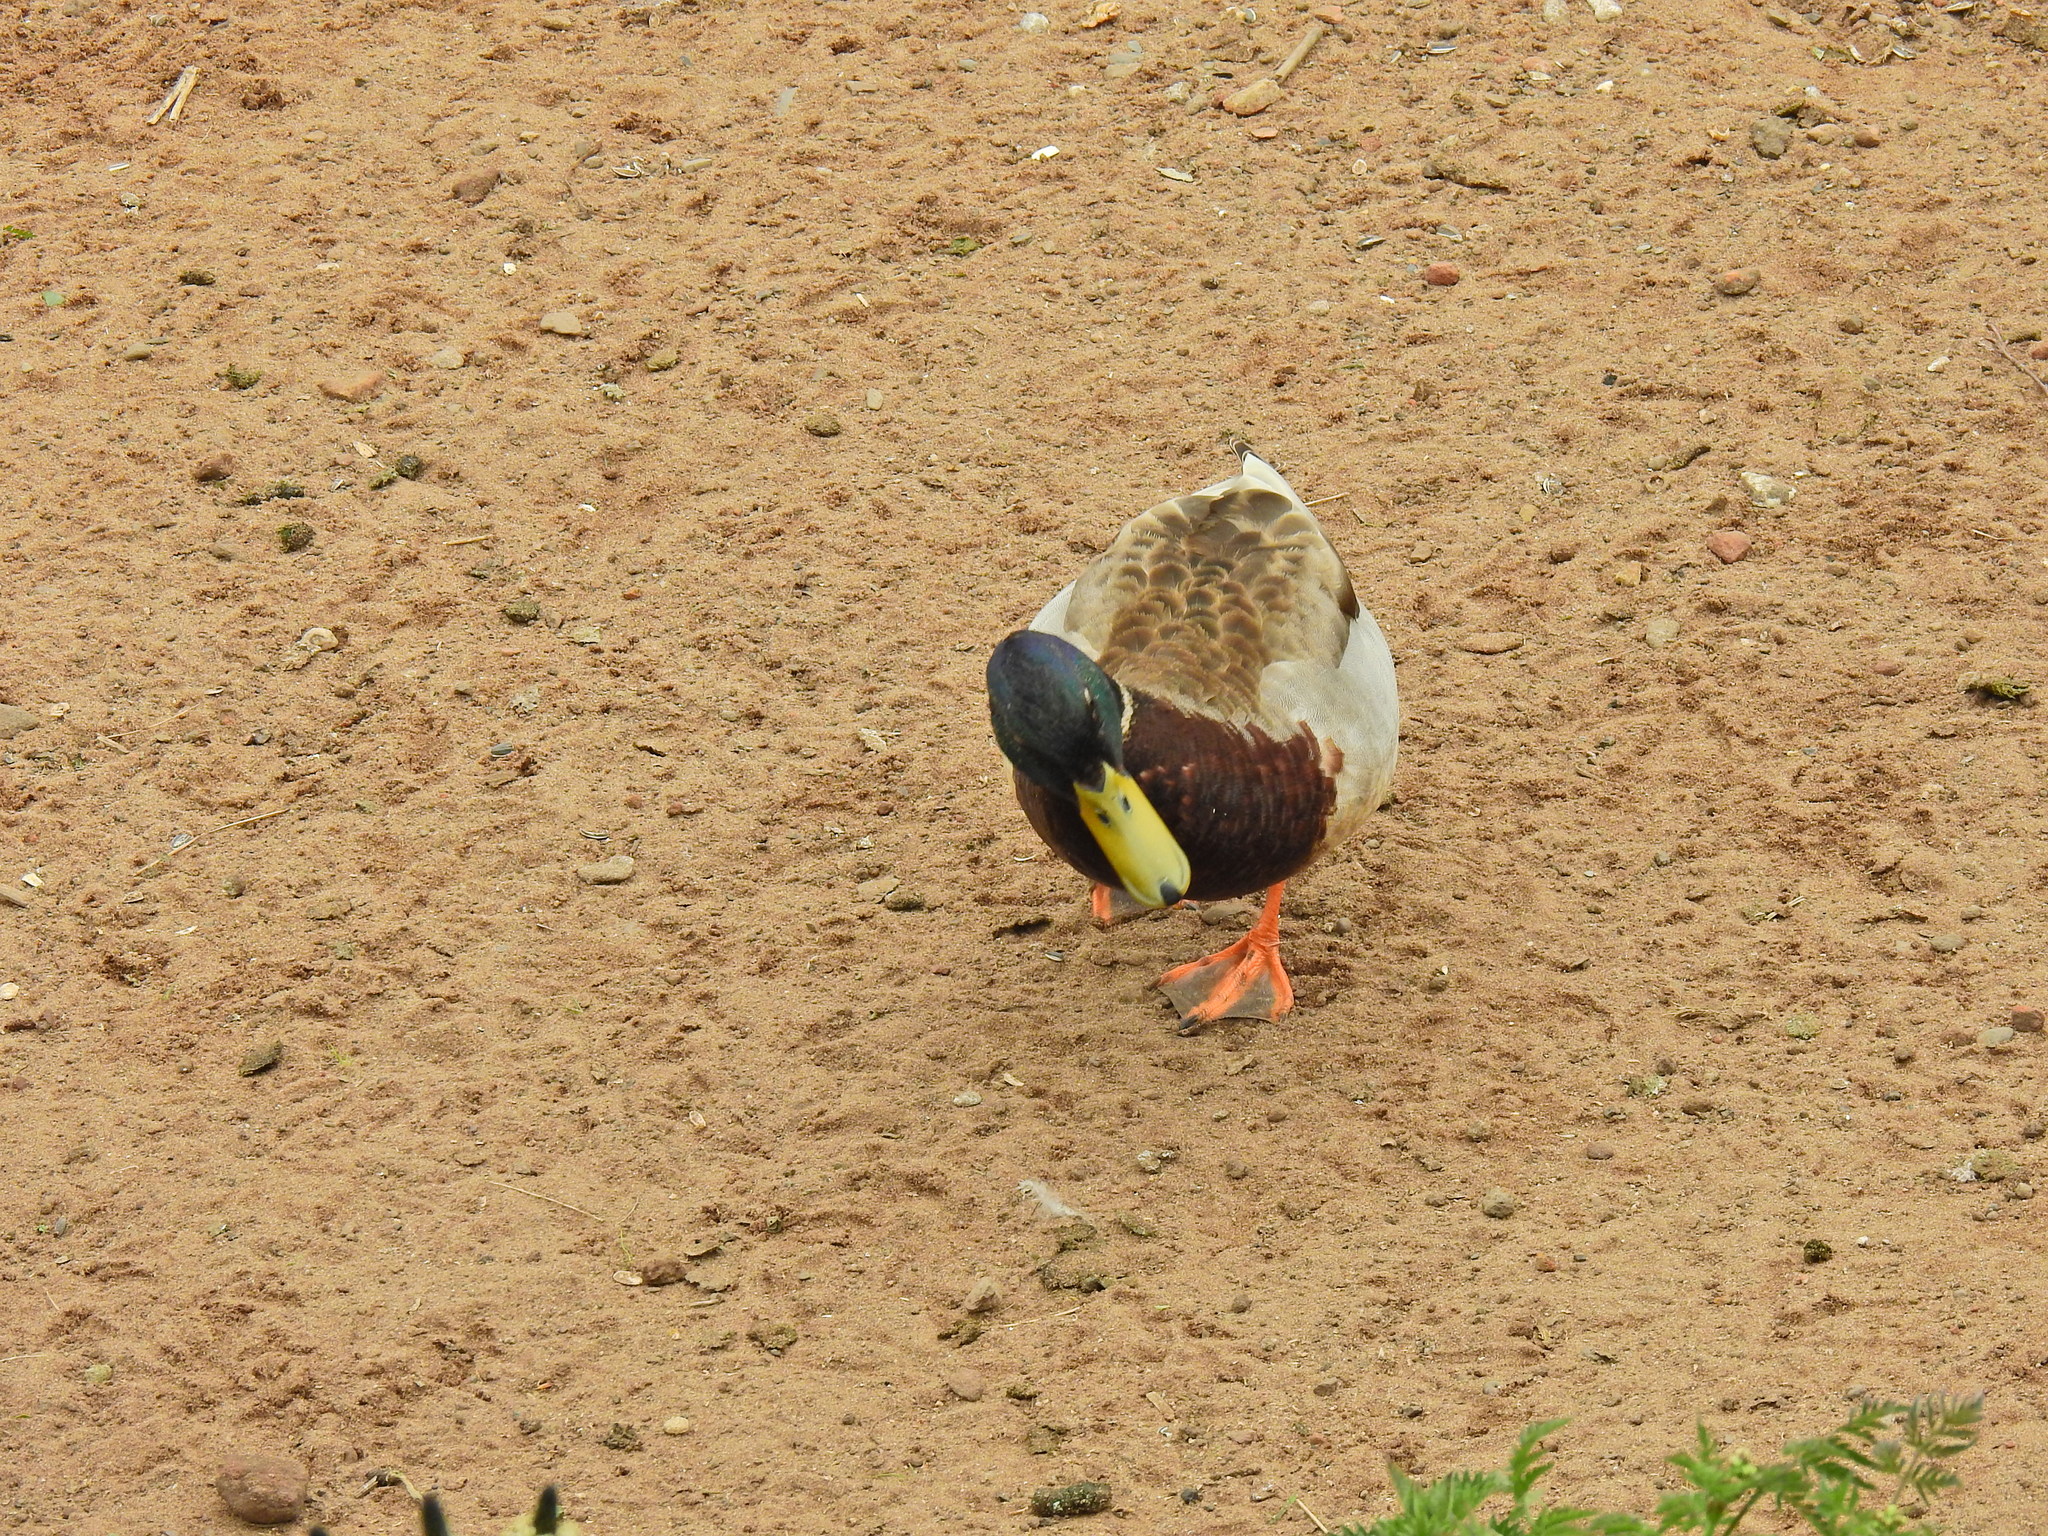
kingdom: Animalia
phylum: Chordata
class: Aves
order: Anseriformes
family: Anatidae
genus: Anas
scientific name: Anas platyrhynchos
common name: Mallard
